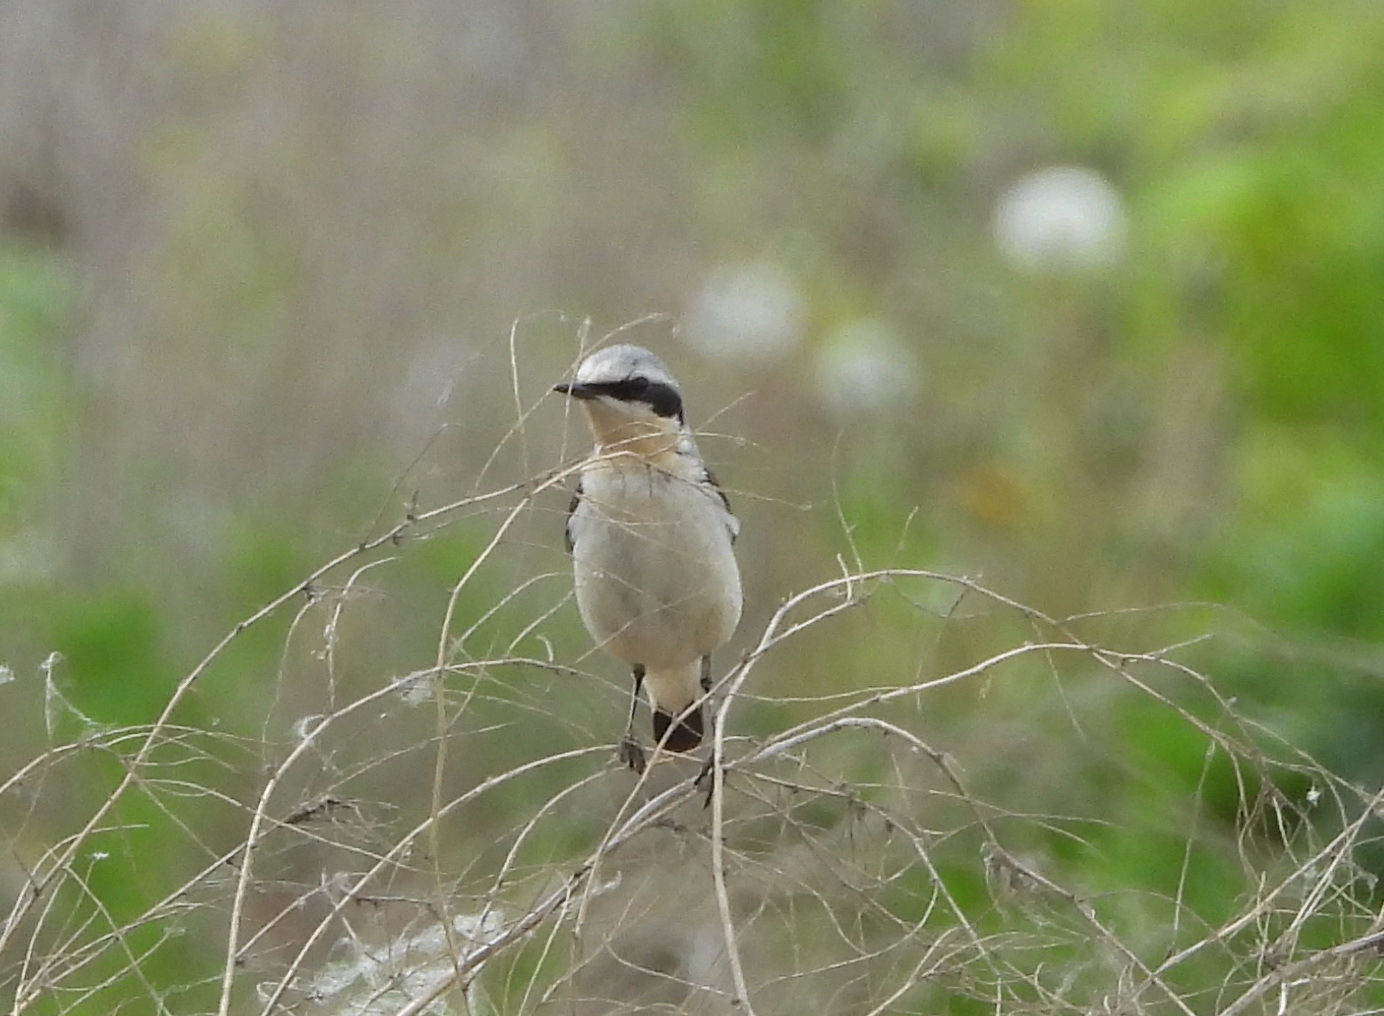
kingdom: Animalia
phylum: Chordata
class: Aves
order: Passeriformes
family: Muscicapidae
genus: Oenanthe
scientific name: Oenanthe oenanthe
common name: Northern wheatear
